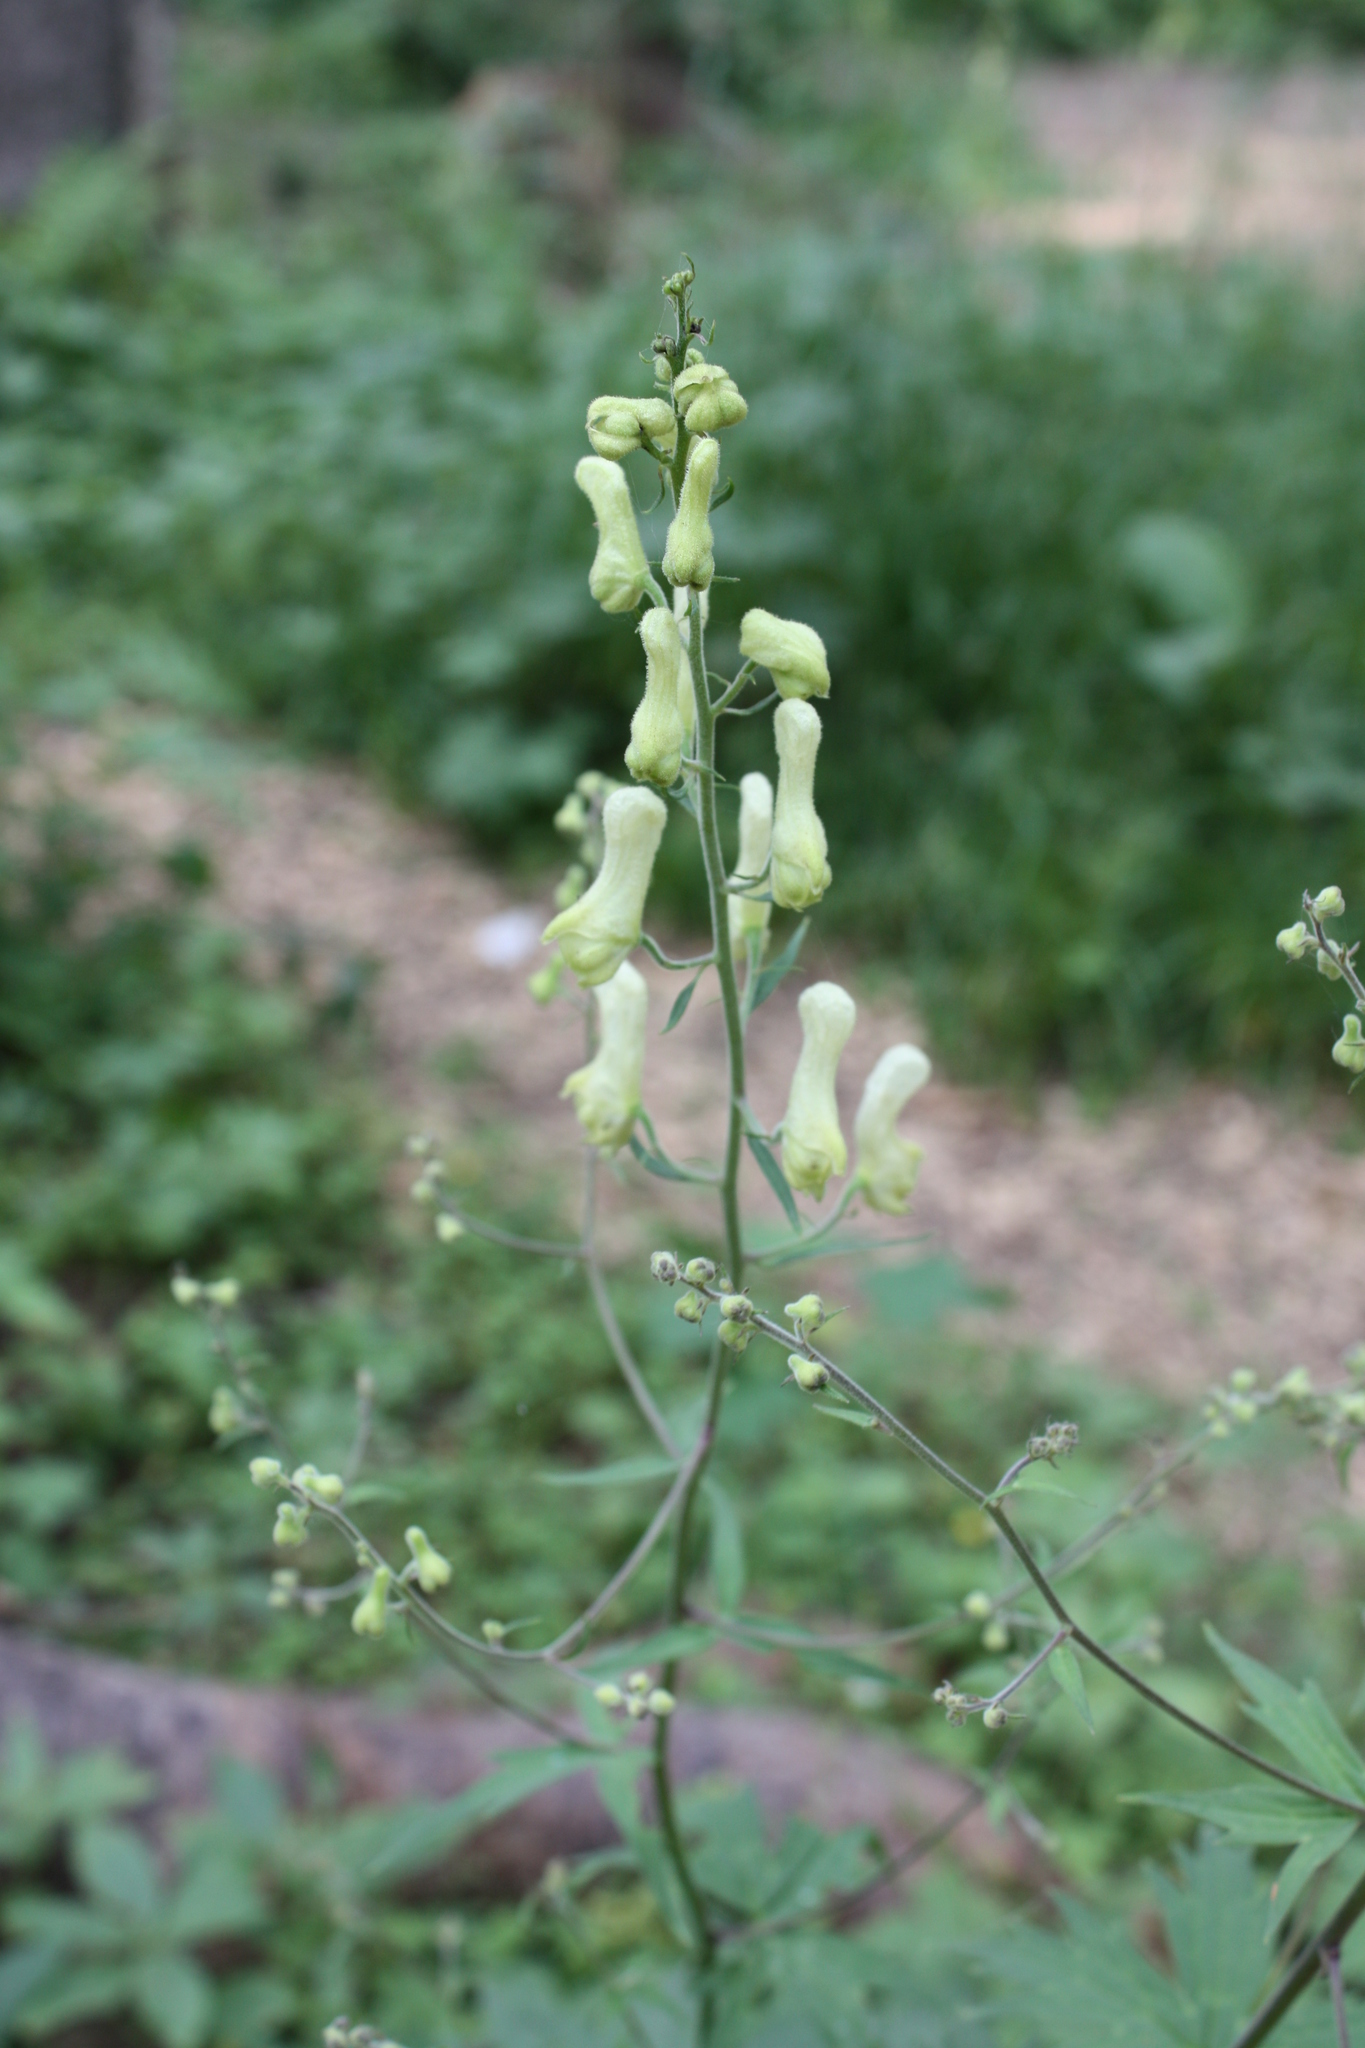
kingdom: Plantae
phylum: Tracheophyta
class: Magnoliopsida
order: Ranunculales
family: Ranunculaceae
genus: Aconitum
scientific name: Aconitum lycoctonum
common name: Wolf's-bane
